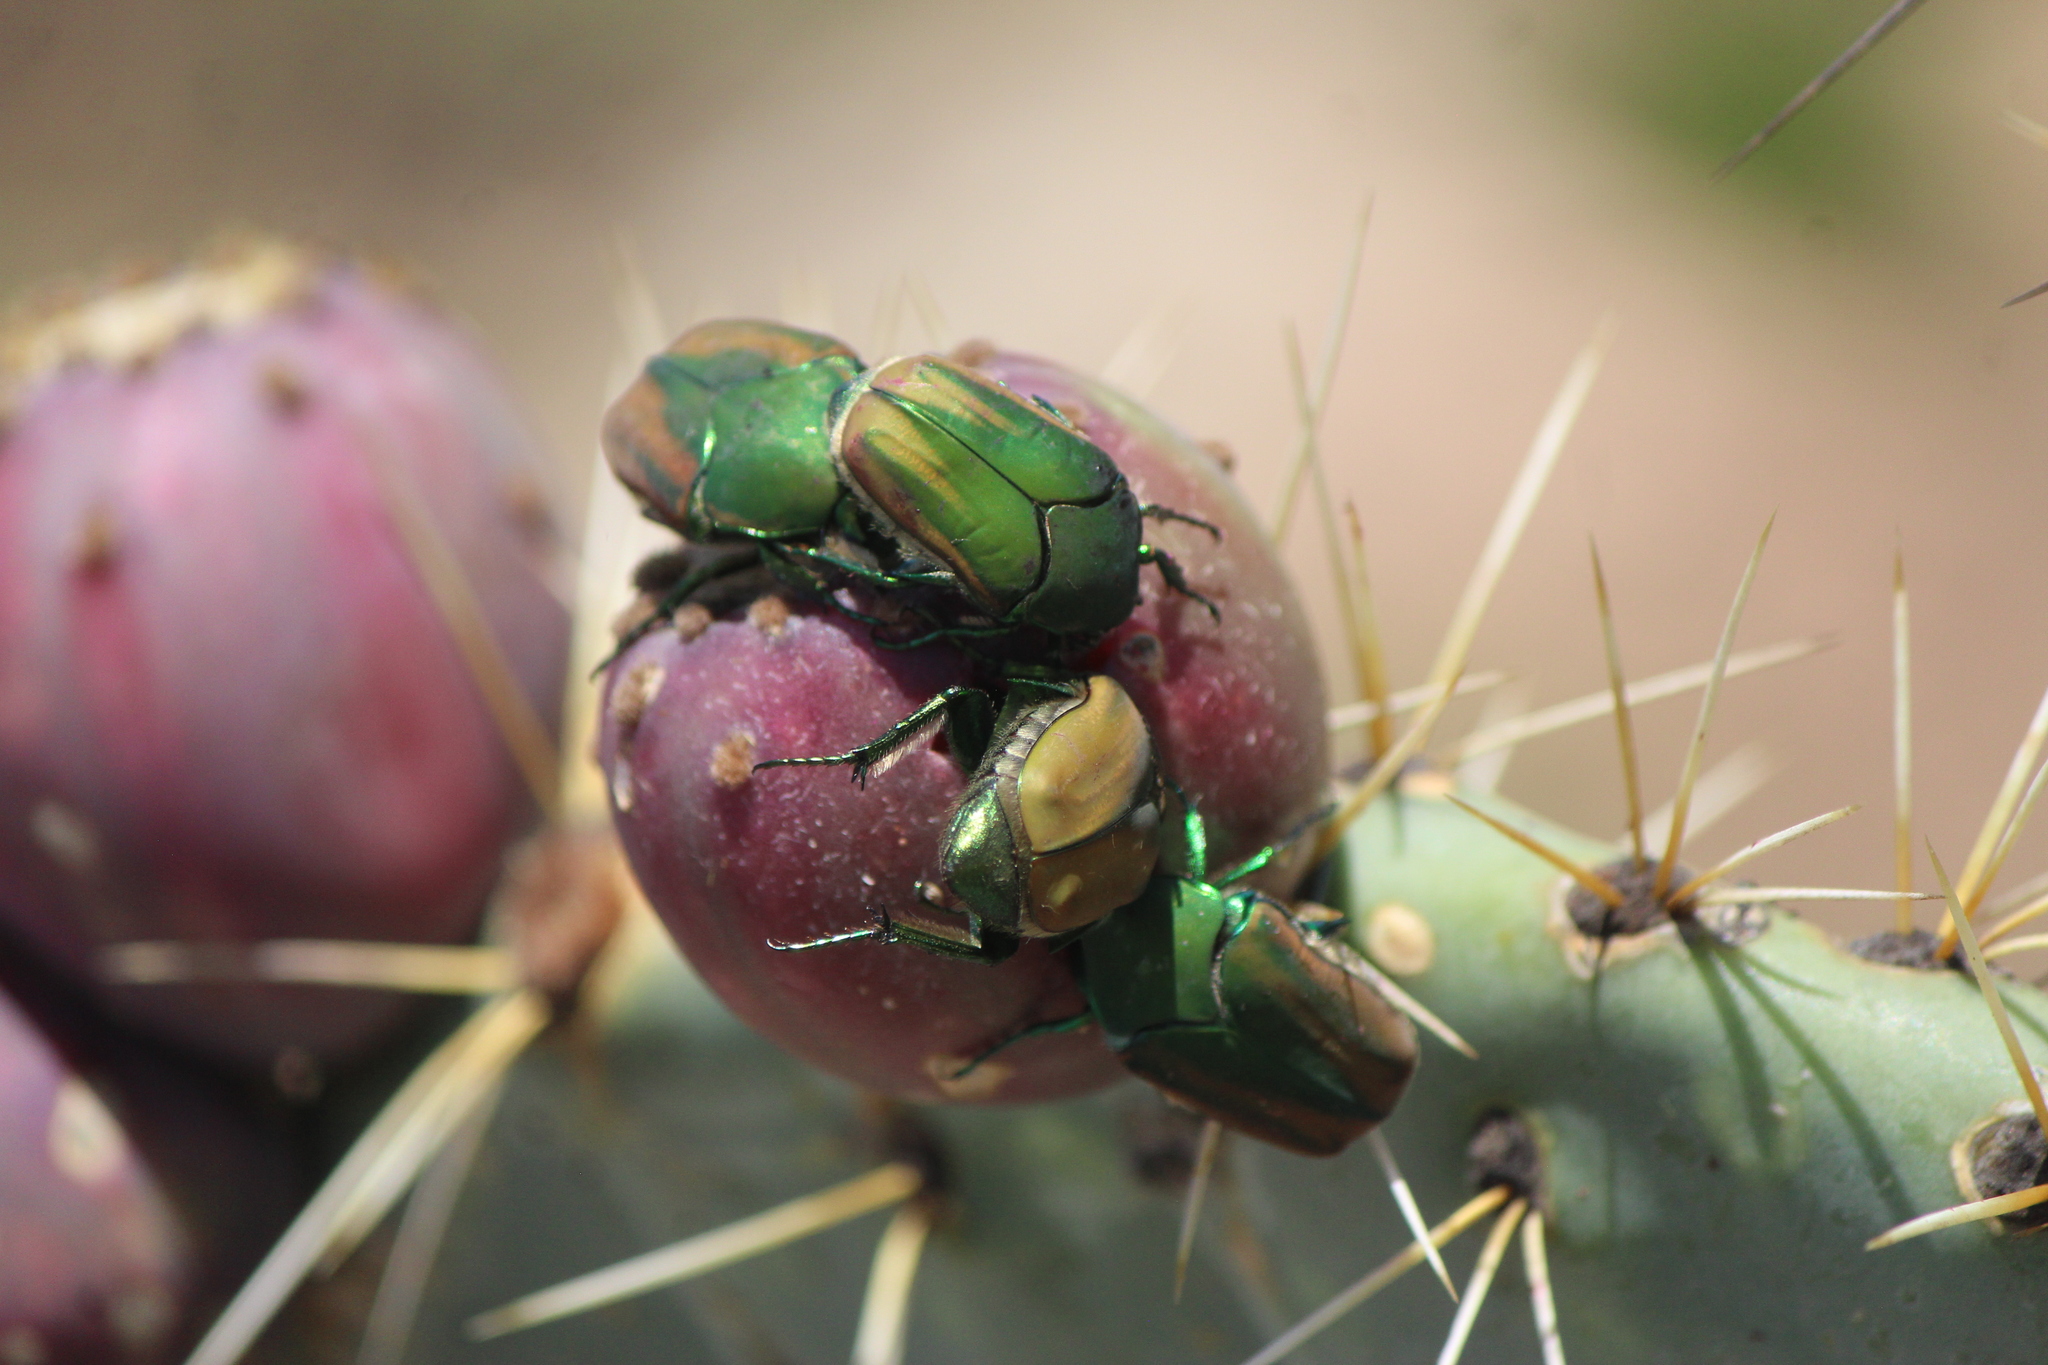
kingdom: Animalia
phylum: Arthropoda
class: Insecta
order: Coleoptera
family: Scarabaeidae
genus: Cotinis
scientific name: Cotinis mutabilis
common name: Figeater beetle
